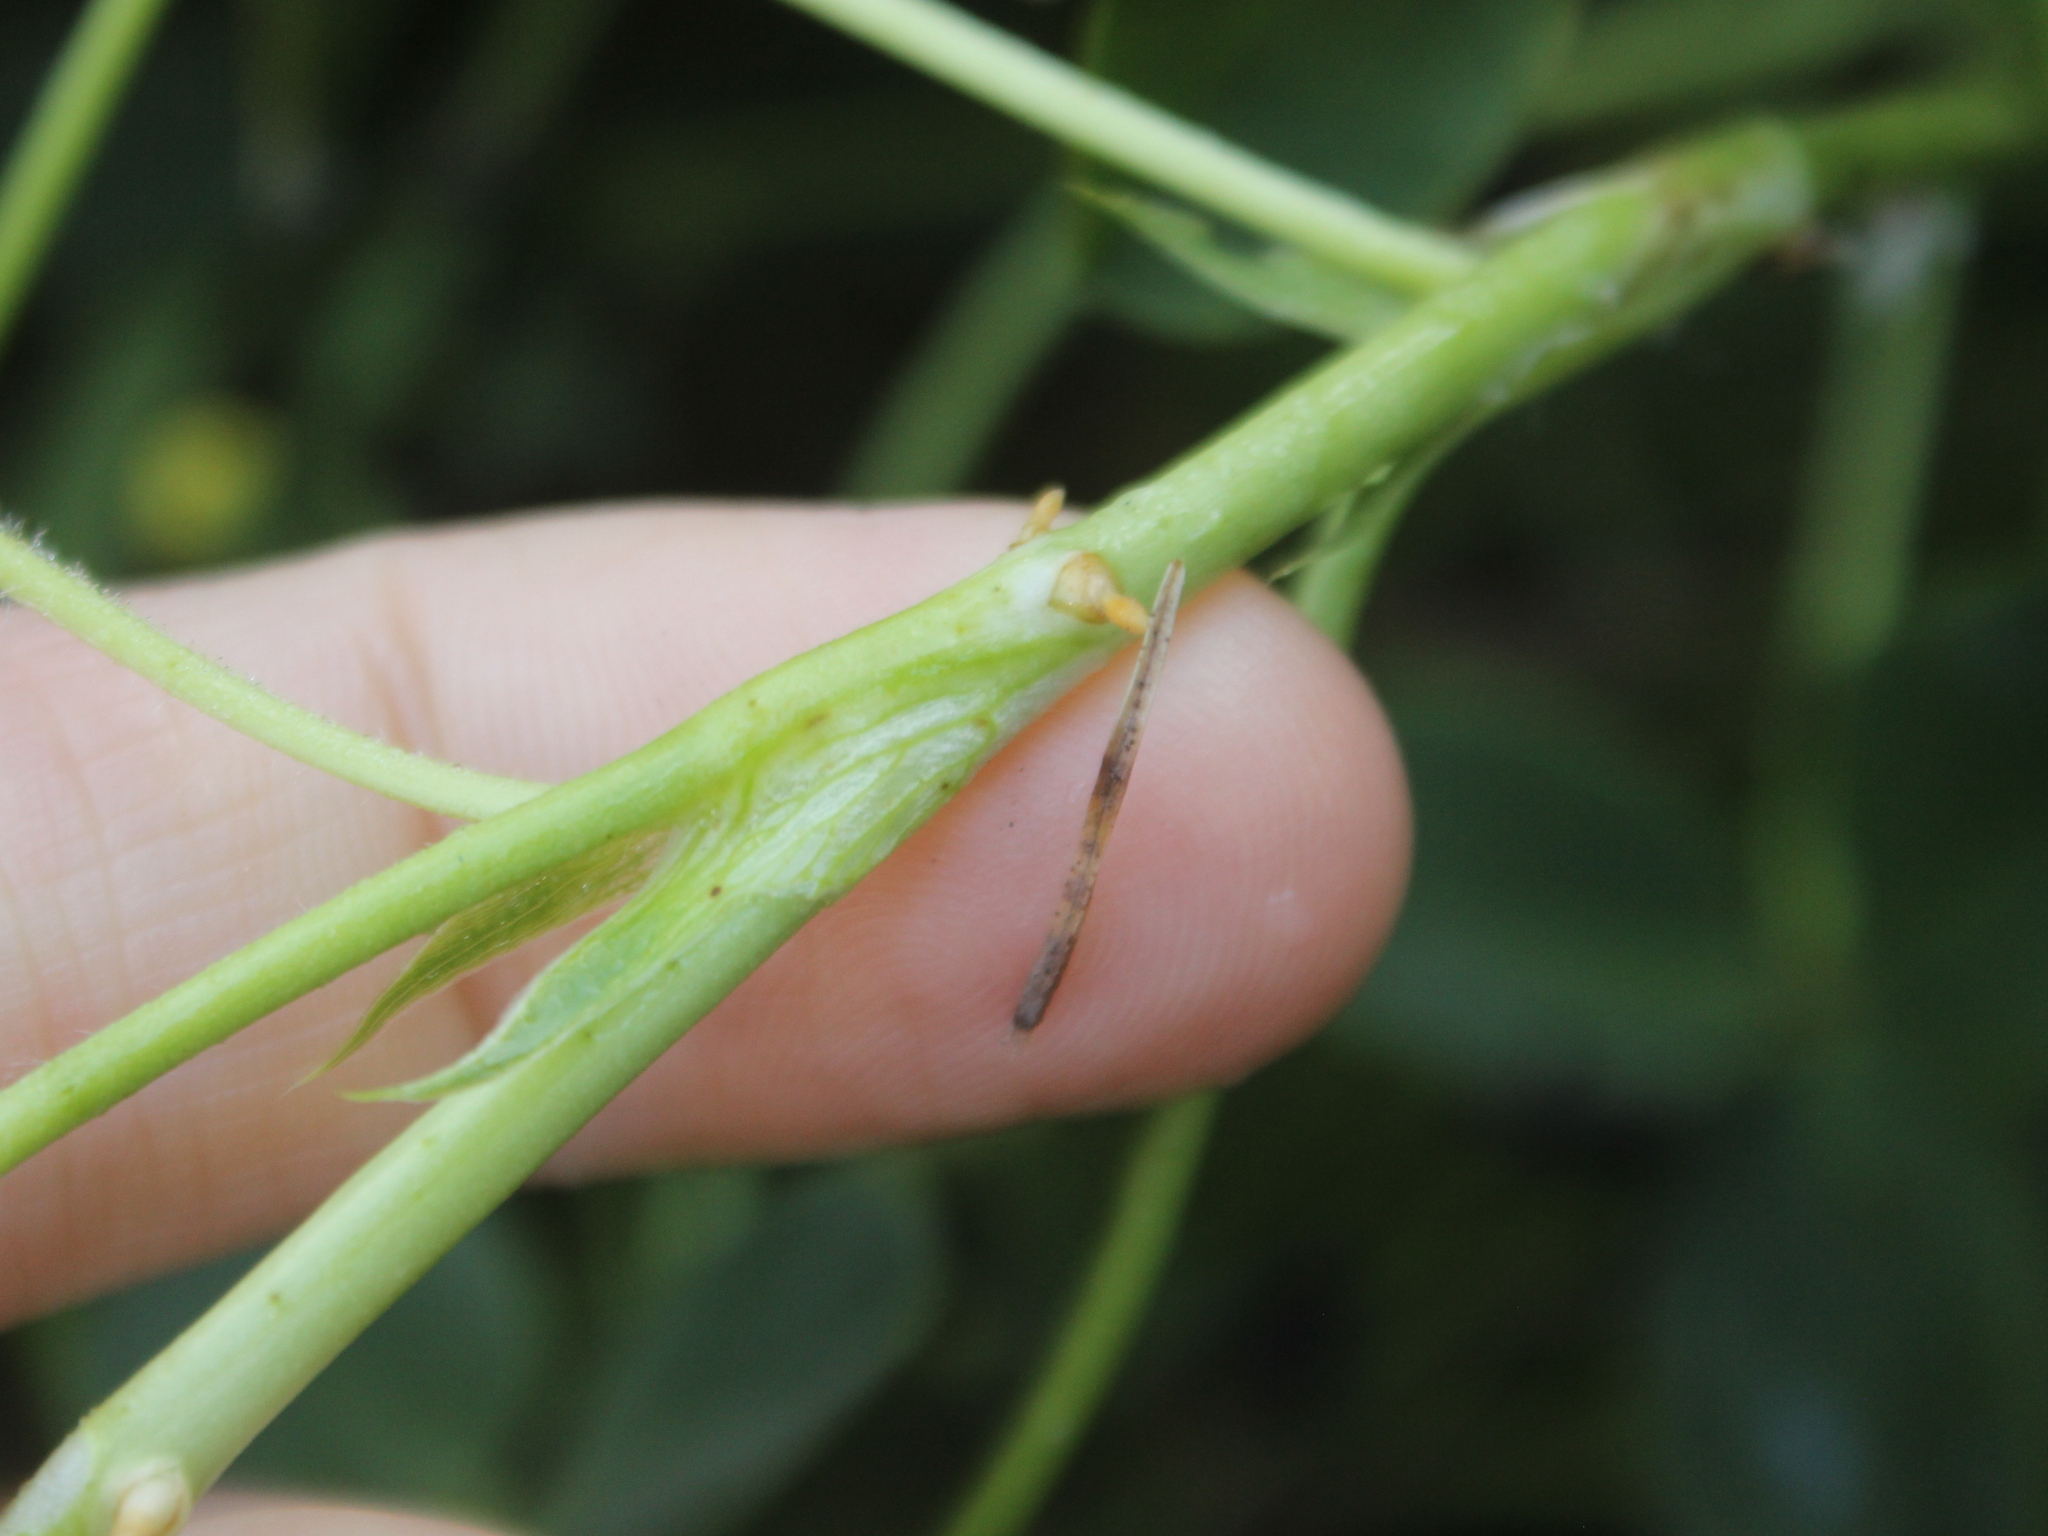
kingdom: Plantae
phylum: Tracheophyta
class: Magnoliopsida
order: Fabales
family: Fabaceae
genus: Trifolium
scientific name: Trifolium fragiferum
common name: Strawberry clover
